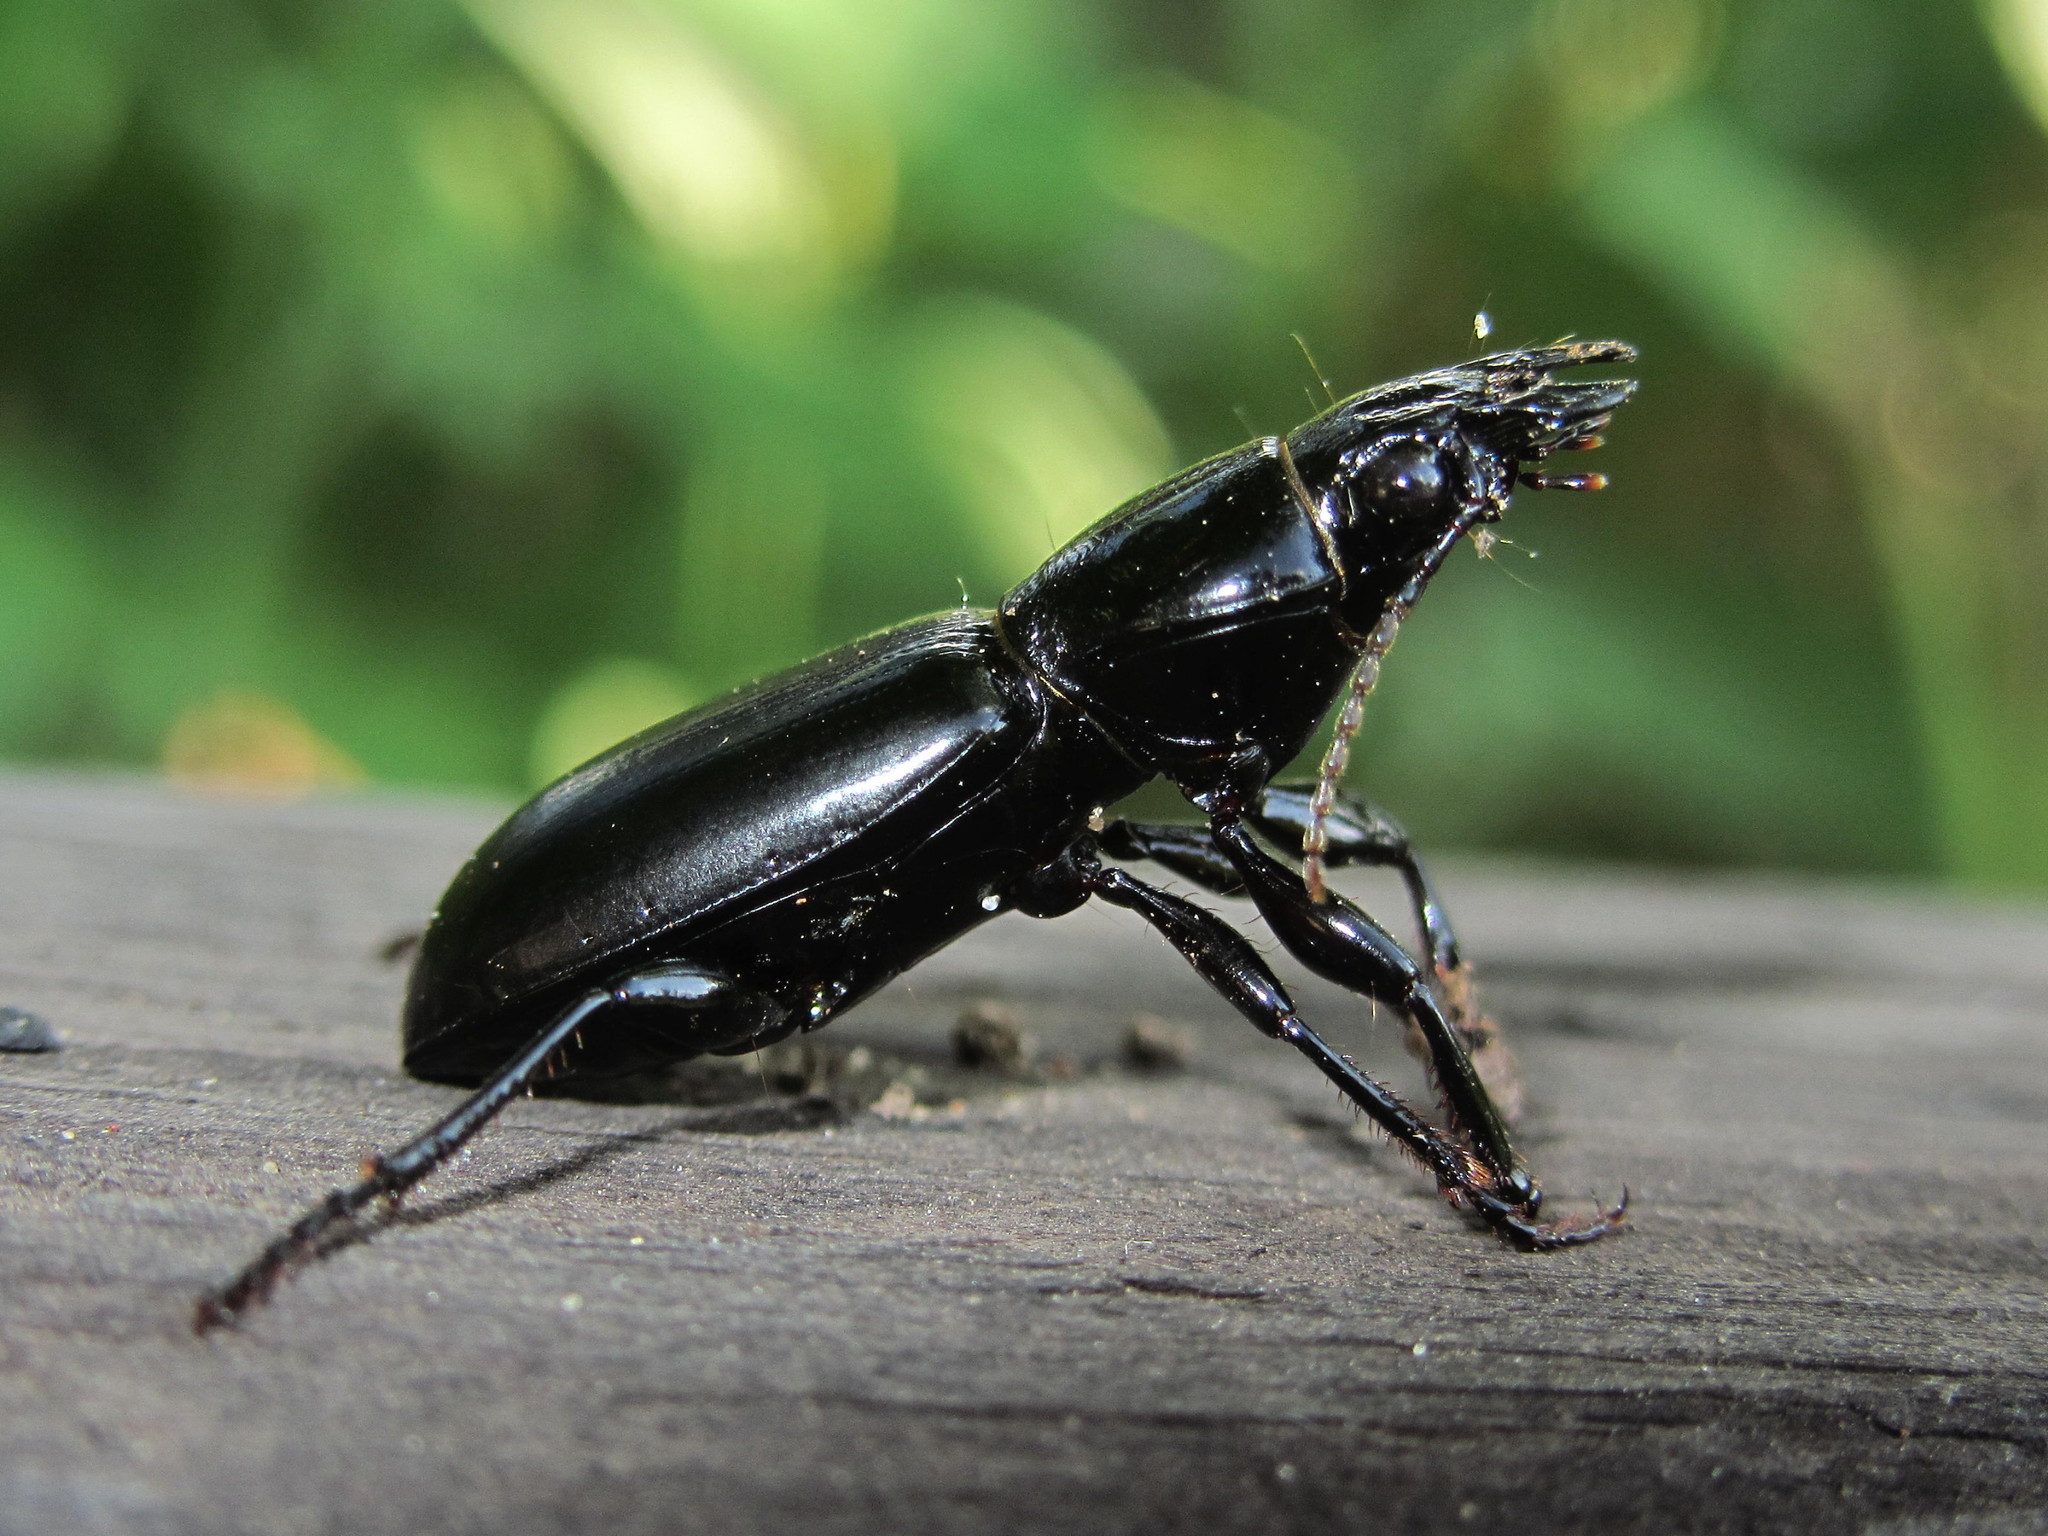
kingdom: Animalia
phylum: Arthropoda
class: Insecta
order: Coleoptera
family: Carabidae
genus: Broscus
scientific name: Broscus semistriatus
